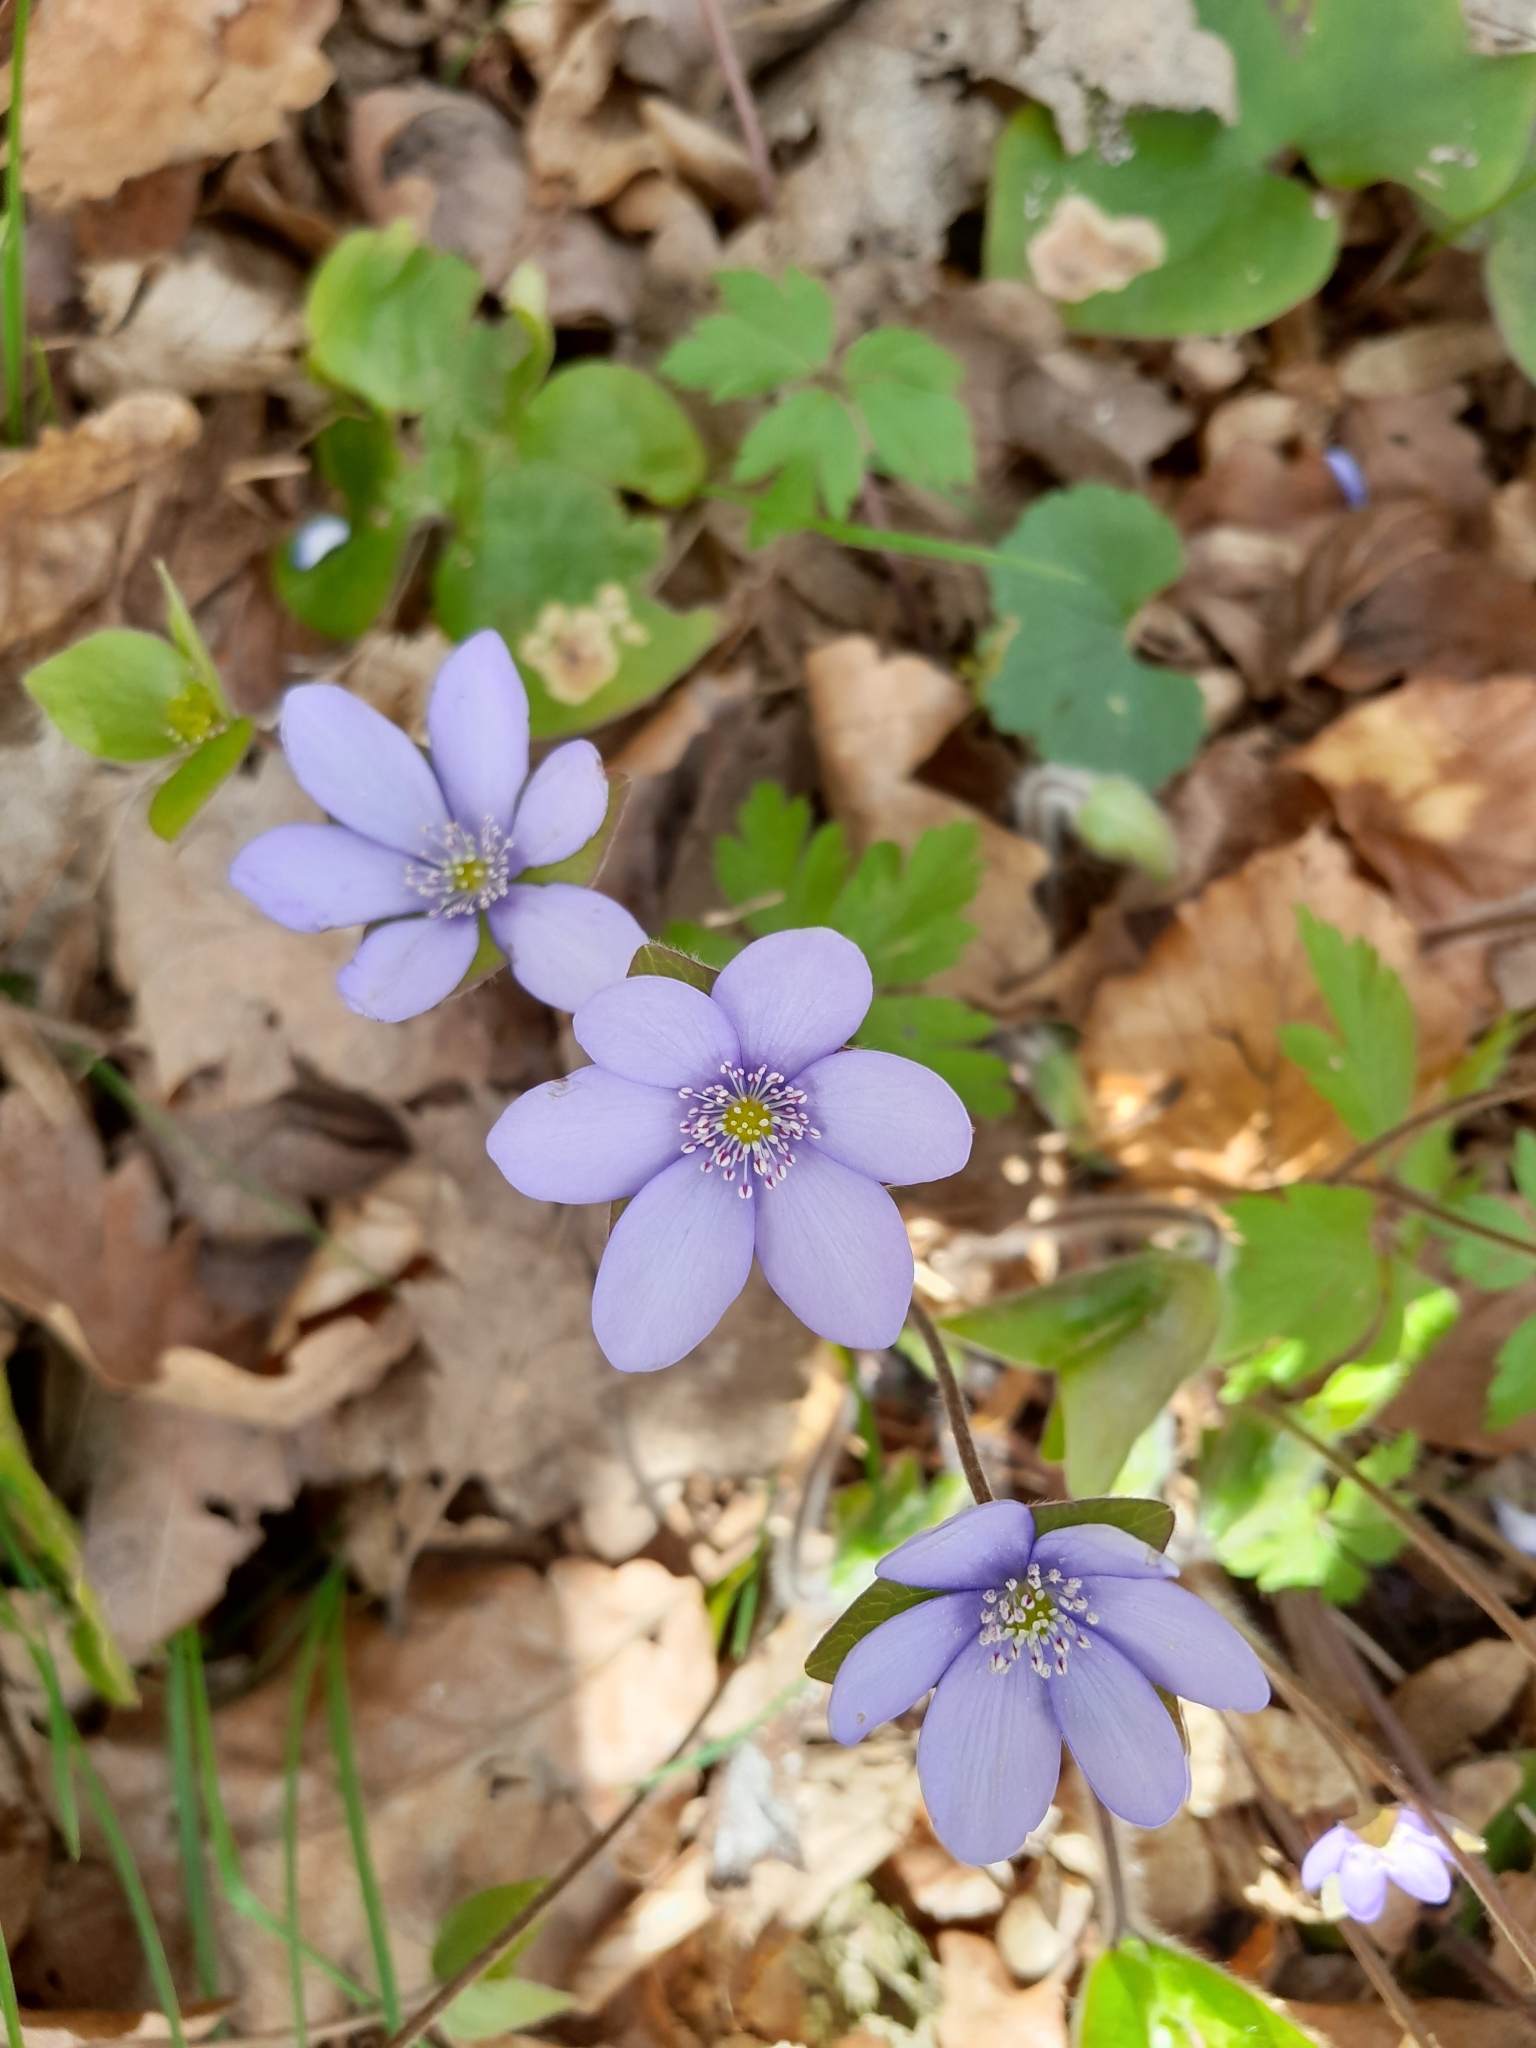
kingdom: Plantae
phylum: Tracheophyta
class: Magnoliopsida
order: Ranunculales
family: Ranunculaceae
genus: Hepatica
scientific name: Hepatica nobilis
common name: Liverleaf
